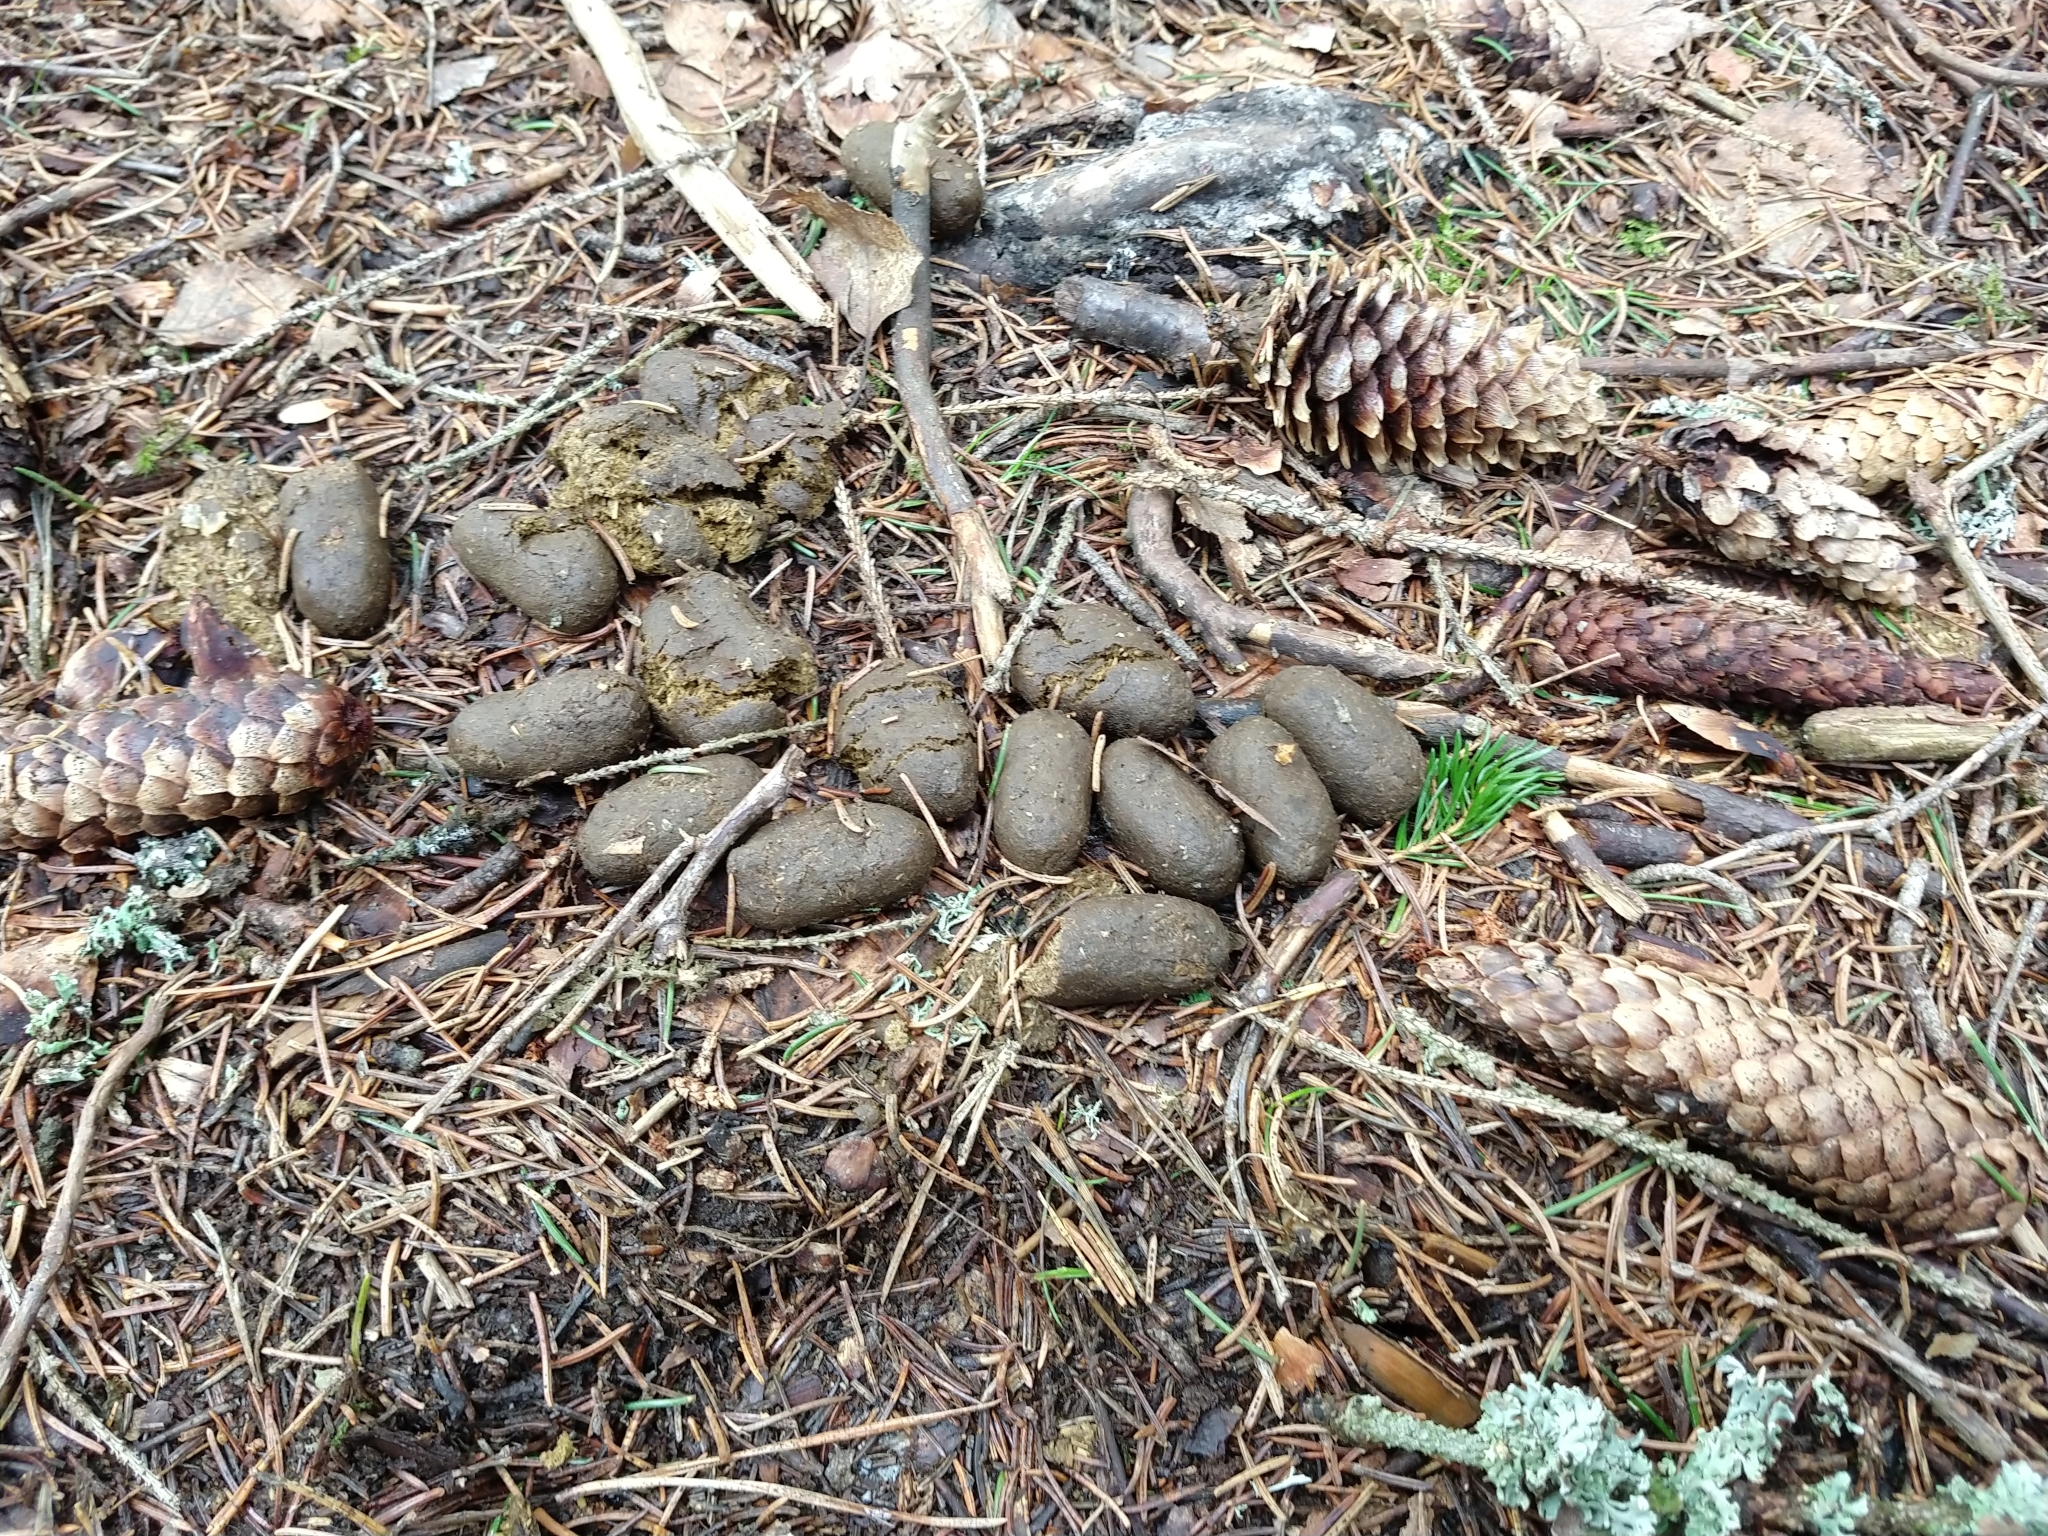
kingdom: Animalia
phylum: Chordata
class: Mammalia
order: Artiodactyla
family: Cervidae
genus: Alces
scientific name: Alces alces
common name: Moose
